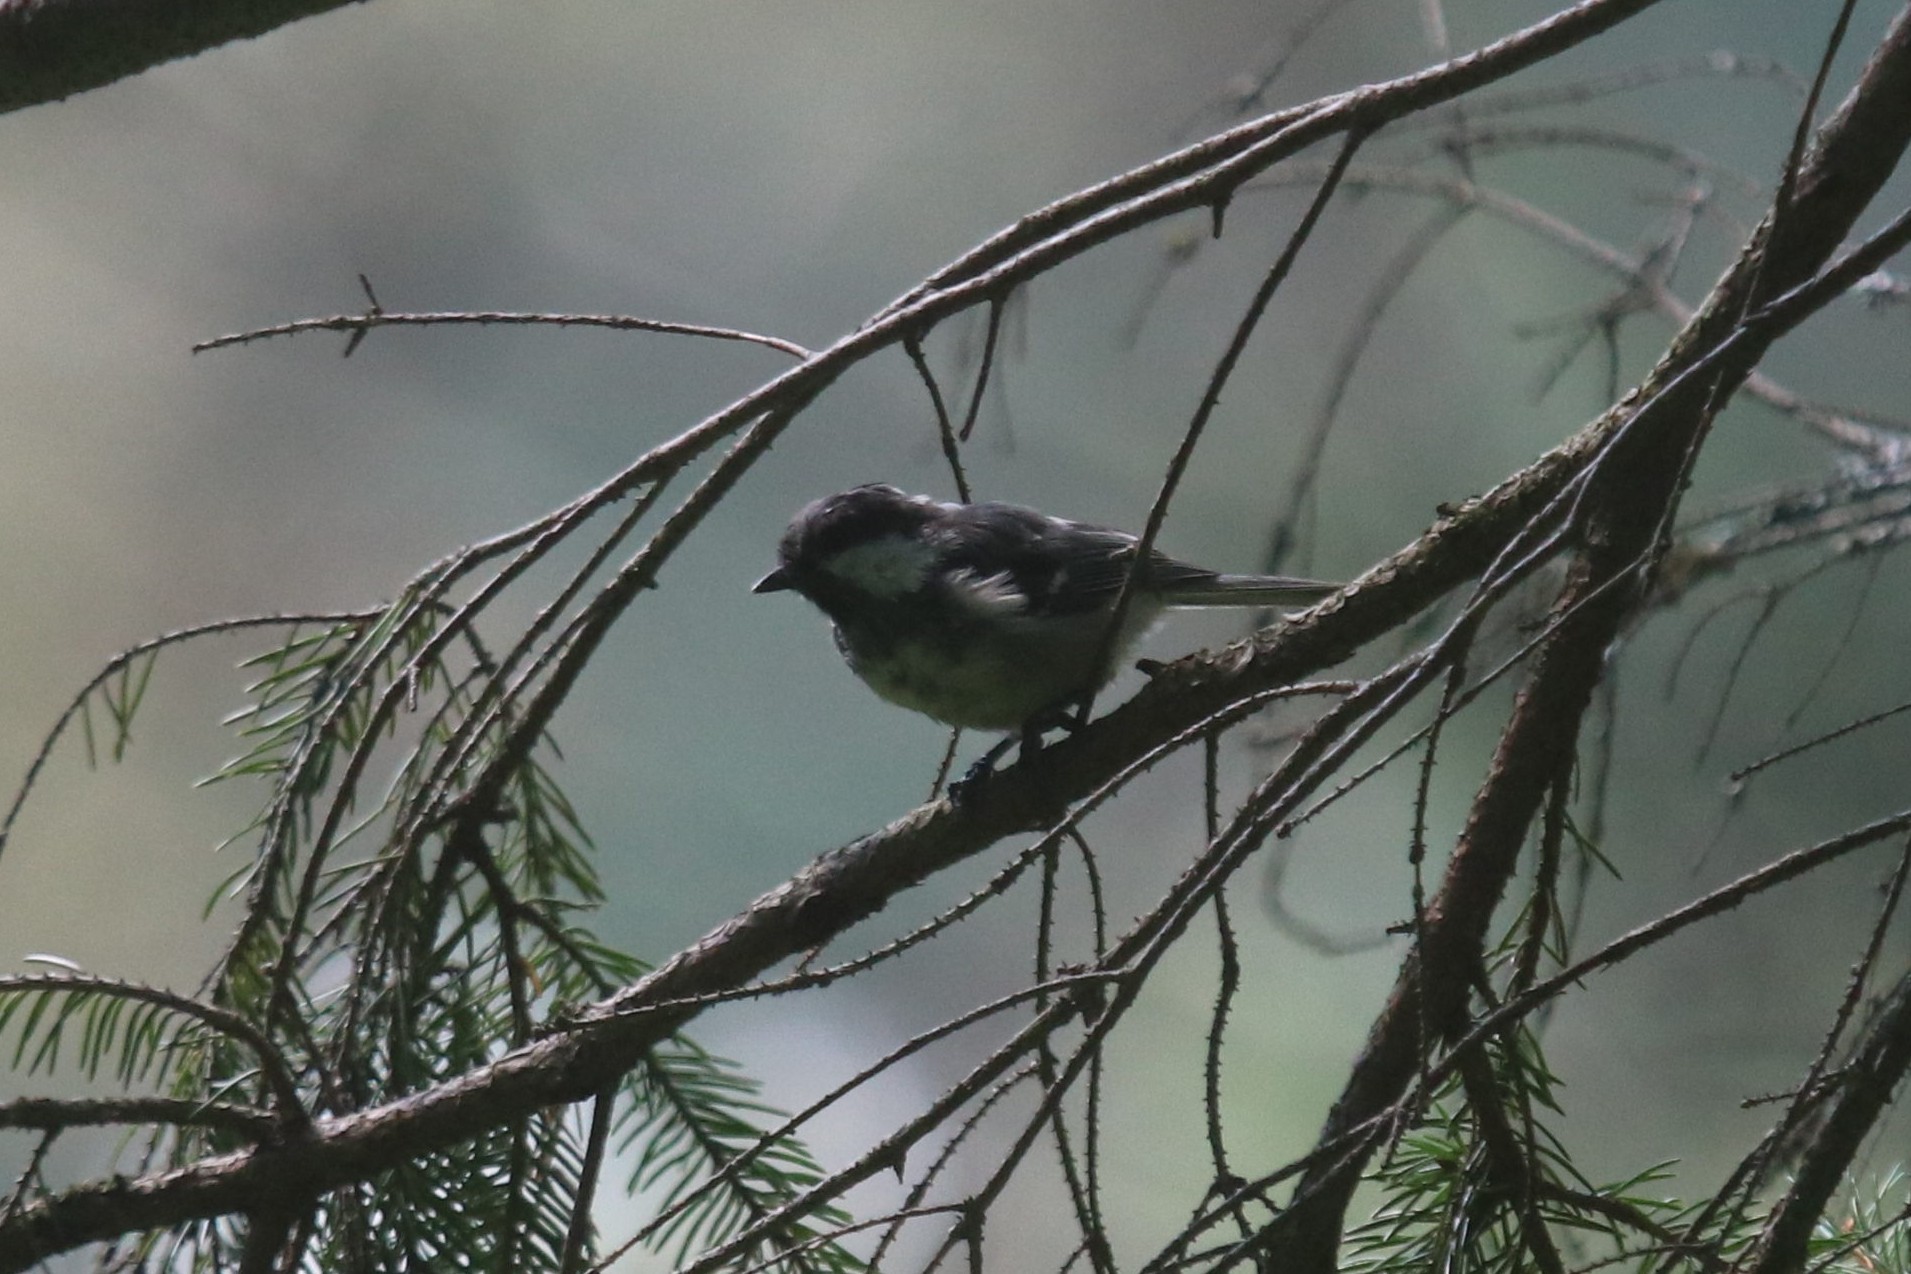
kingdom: Animalia
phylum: Chordata
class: Aves
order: Passeriformes
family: Paridae
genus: Periparus
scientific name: Periparus ater
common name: Coal tit
